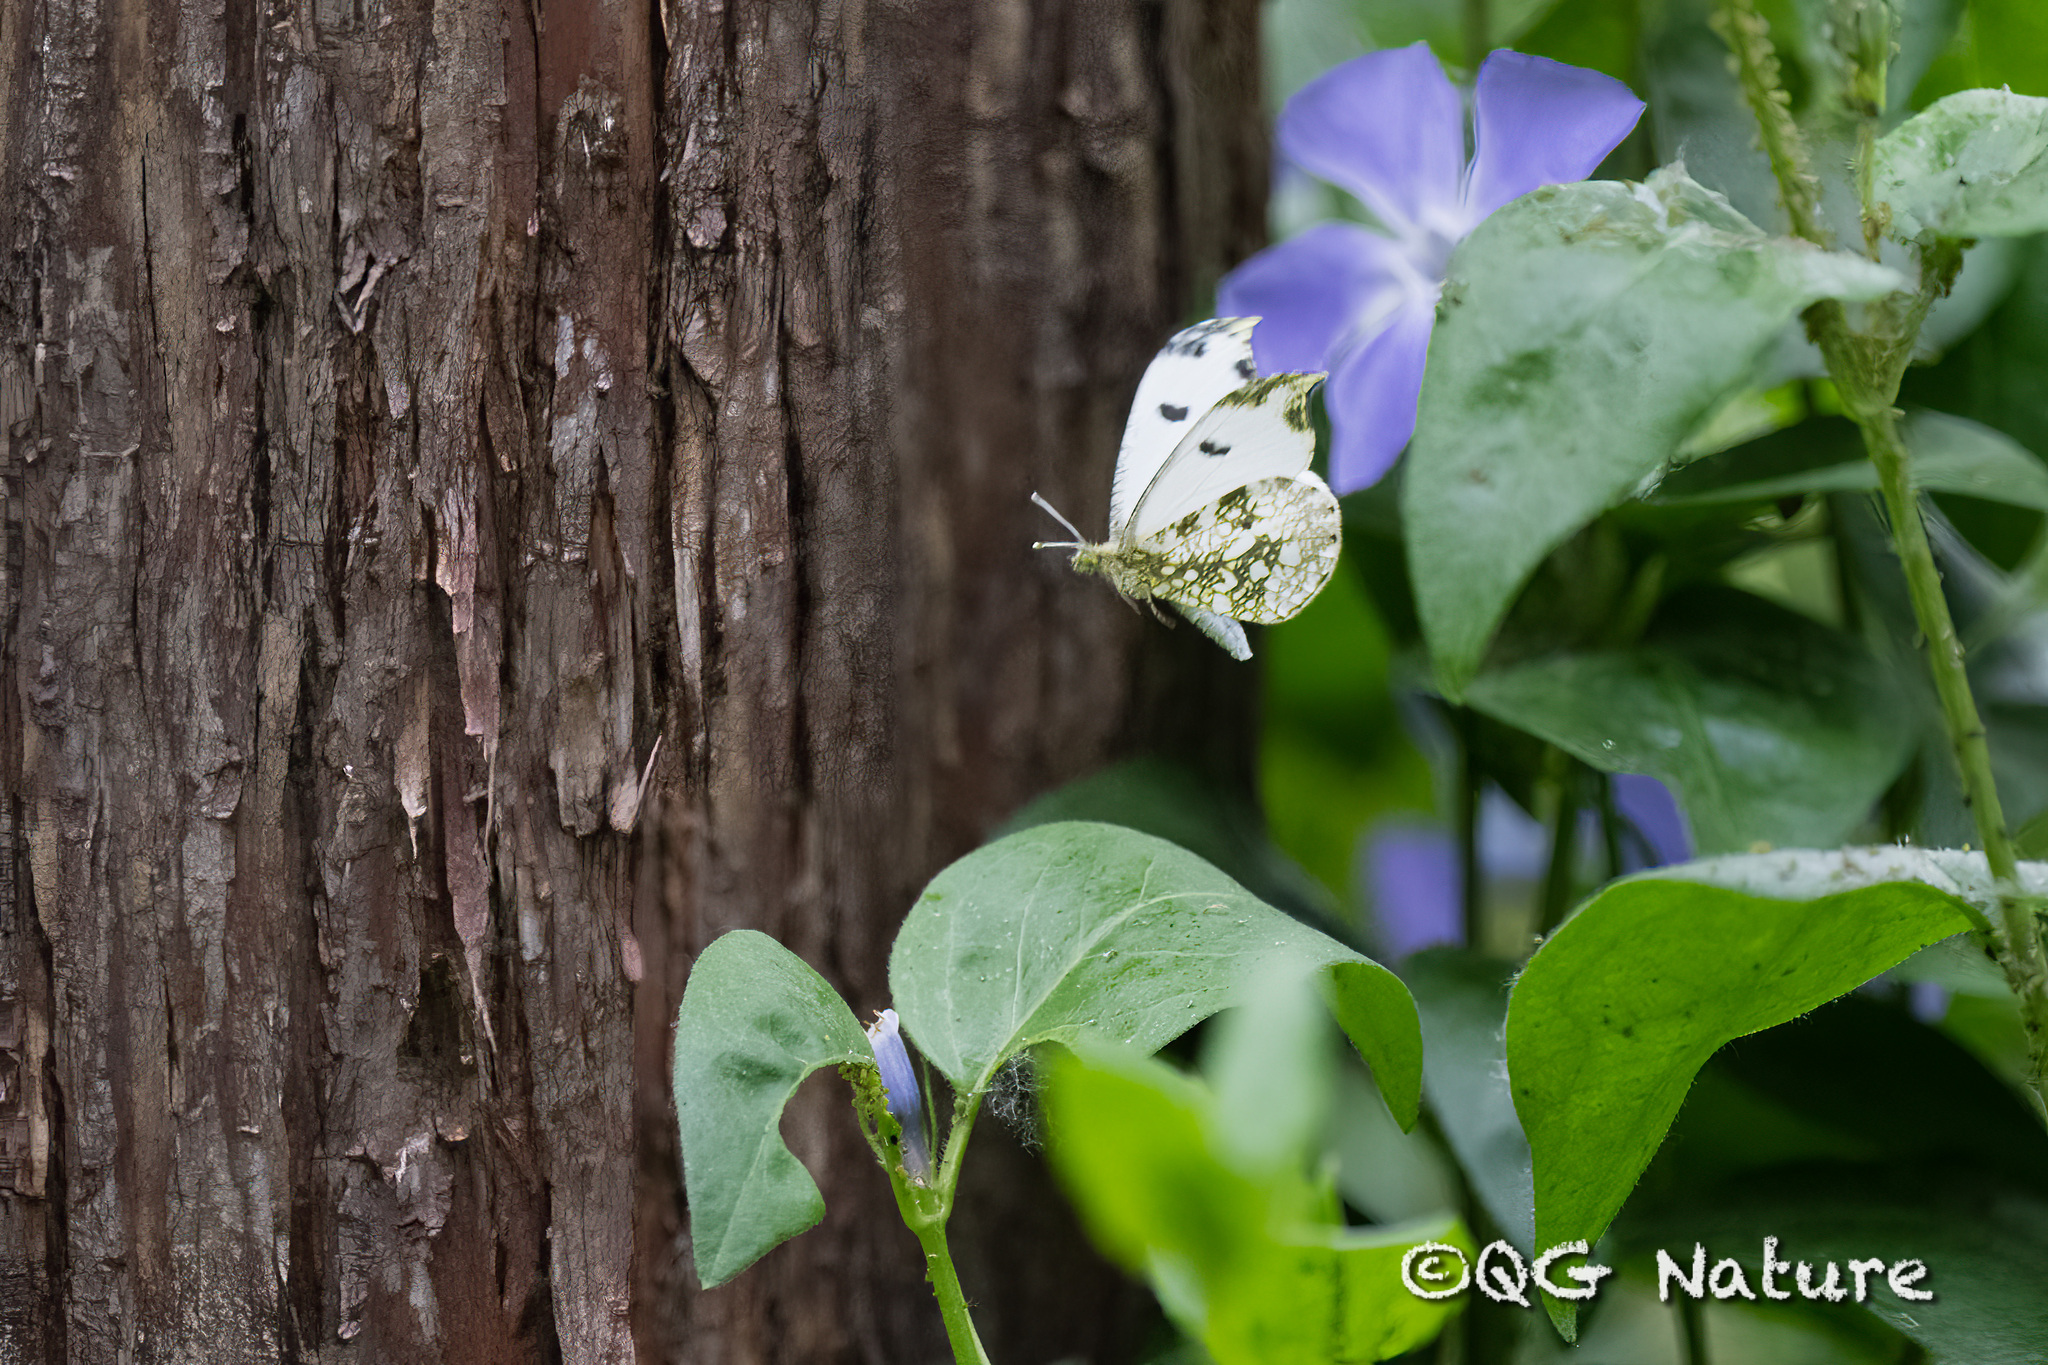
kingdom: Animalia
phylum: Arthropoda
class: Insecta
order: Lepidoptera
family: Pieridae
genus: Anthocharis
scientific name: Anthocharis scolymus
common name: Yellow tip
